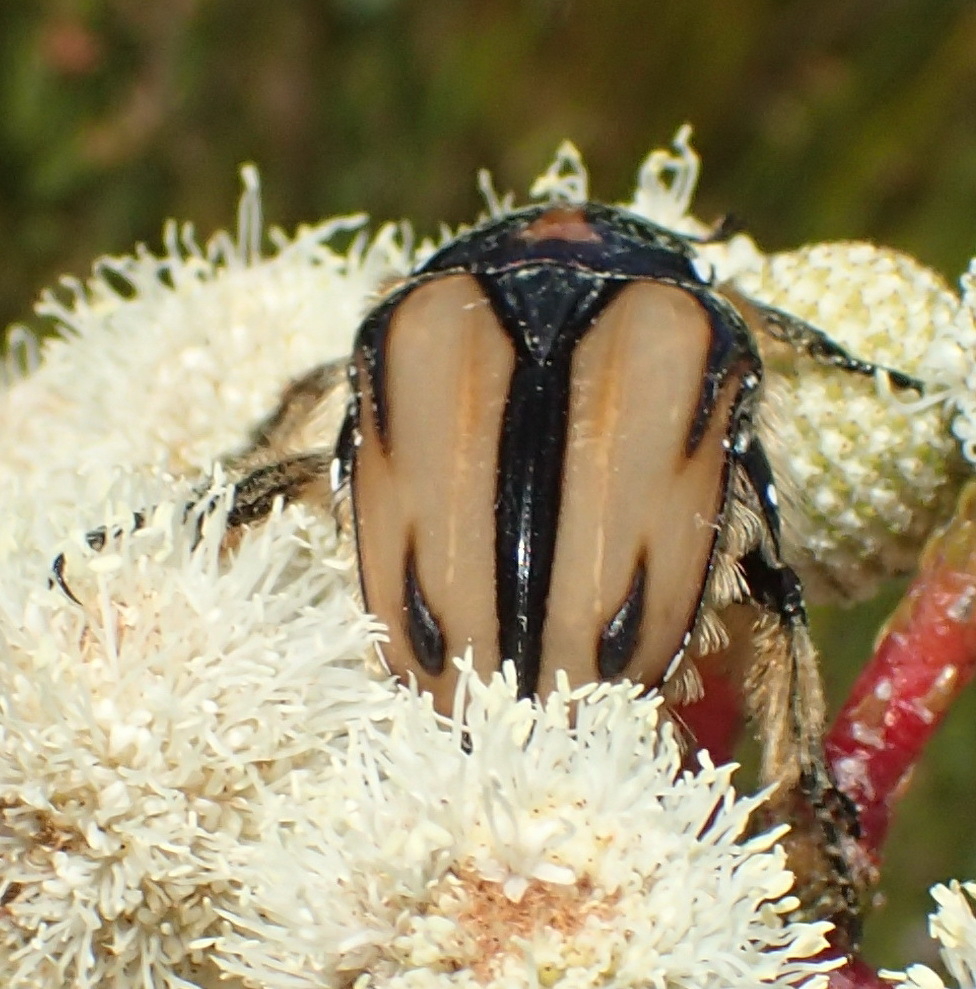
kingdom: Animalia
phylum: Arthropoda
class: Insecta
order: Coleoptera
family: Scarabaeidae
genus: Trichostetha
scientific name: Trichostetha signata
